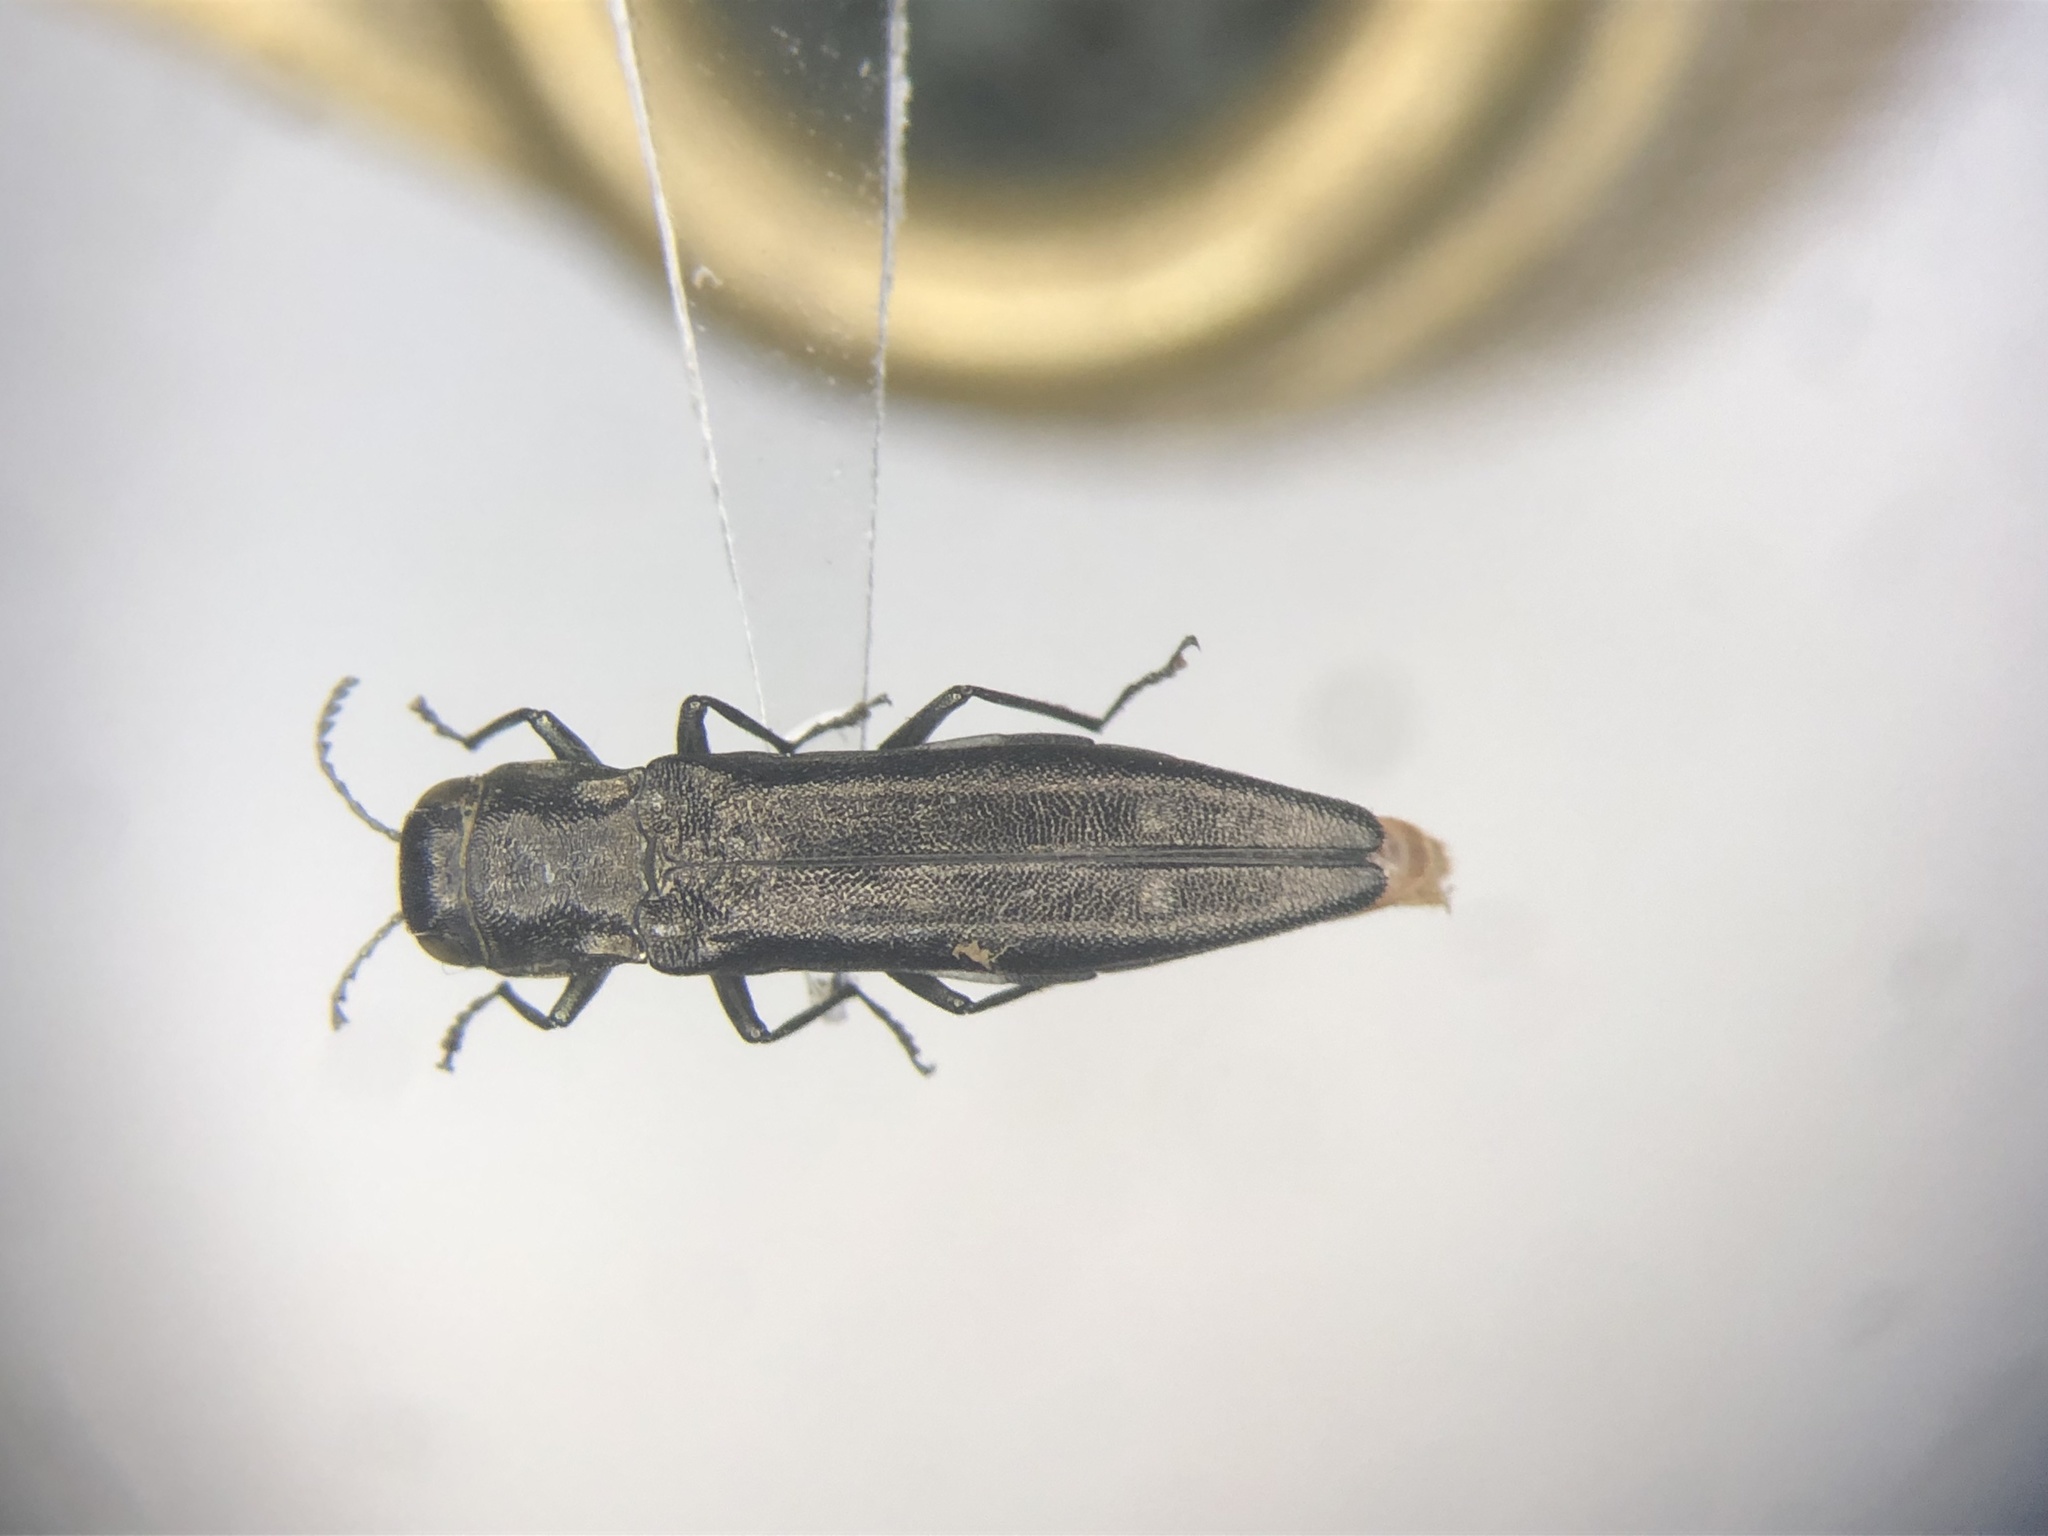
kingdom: Animalia
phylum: Arthropoda
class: Insecta
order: Coleoptera
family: Buprestidae
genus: Agrilus
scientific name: Agrilus obsoletoguttatus
